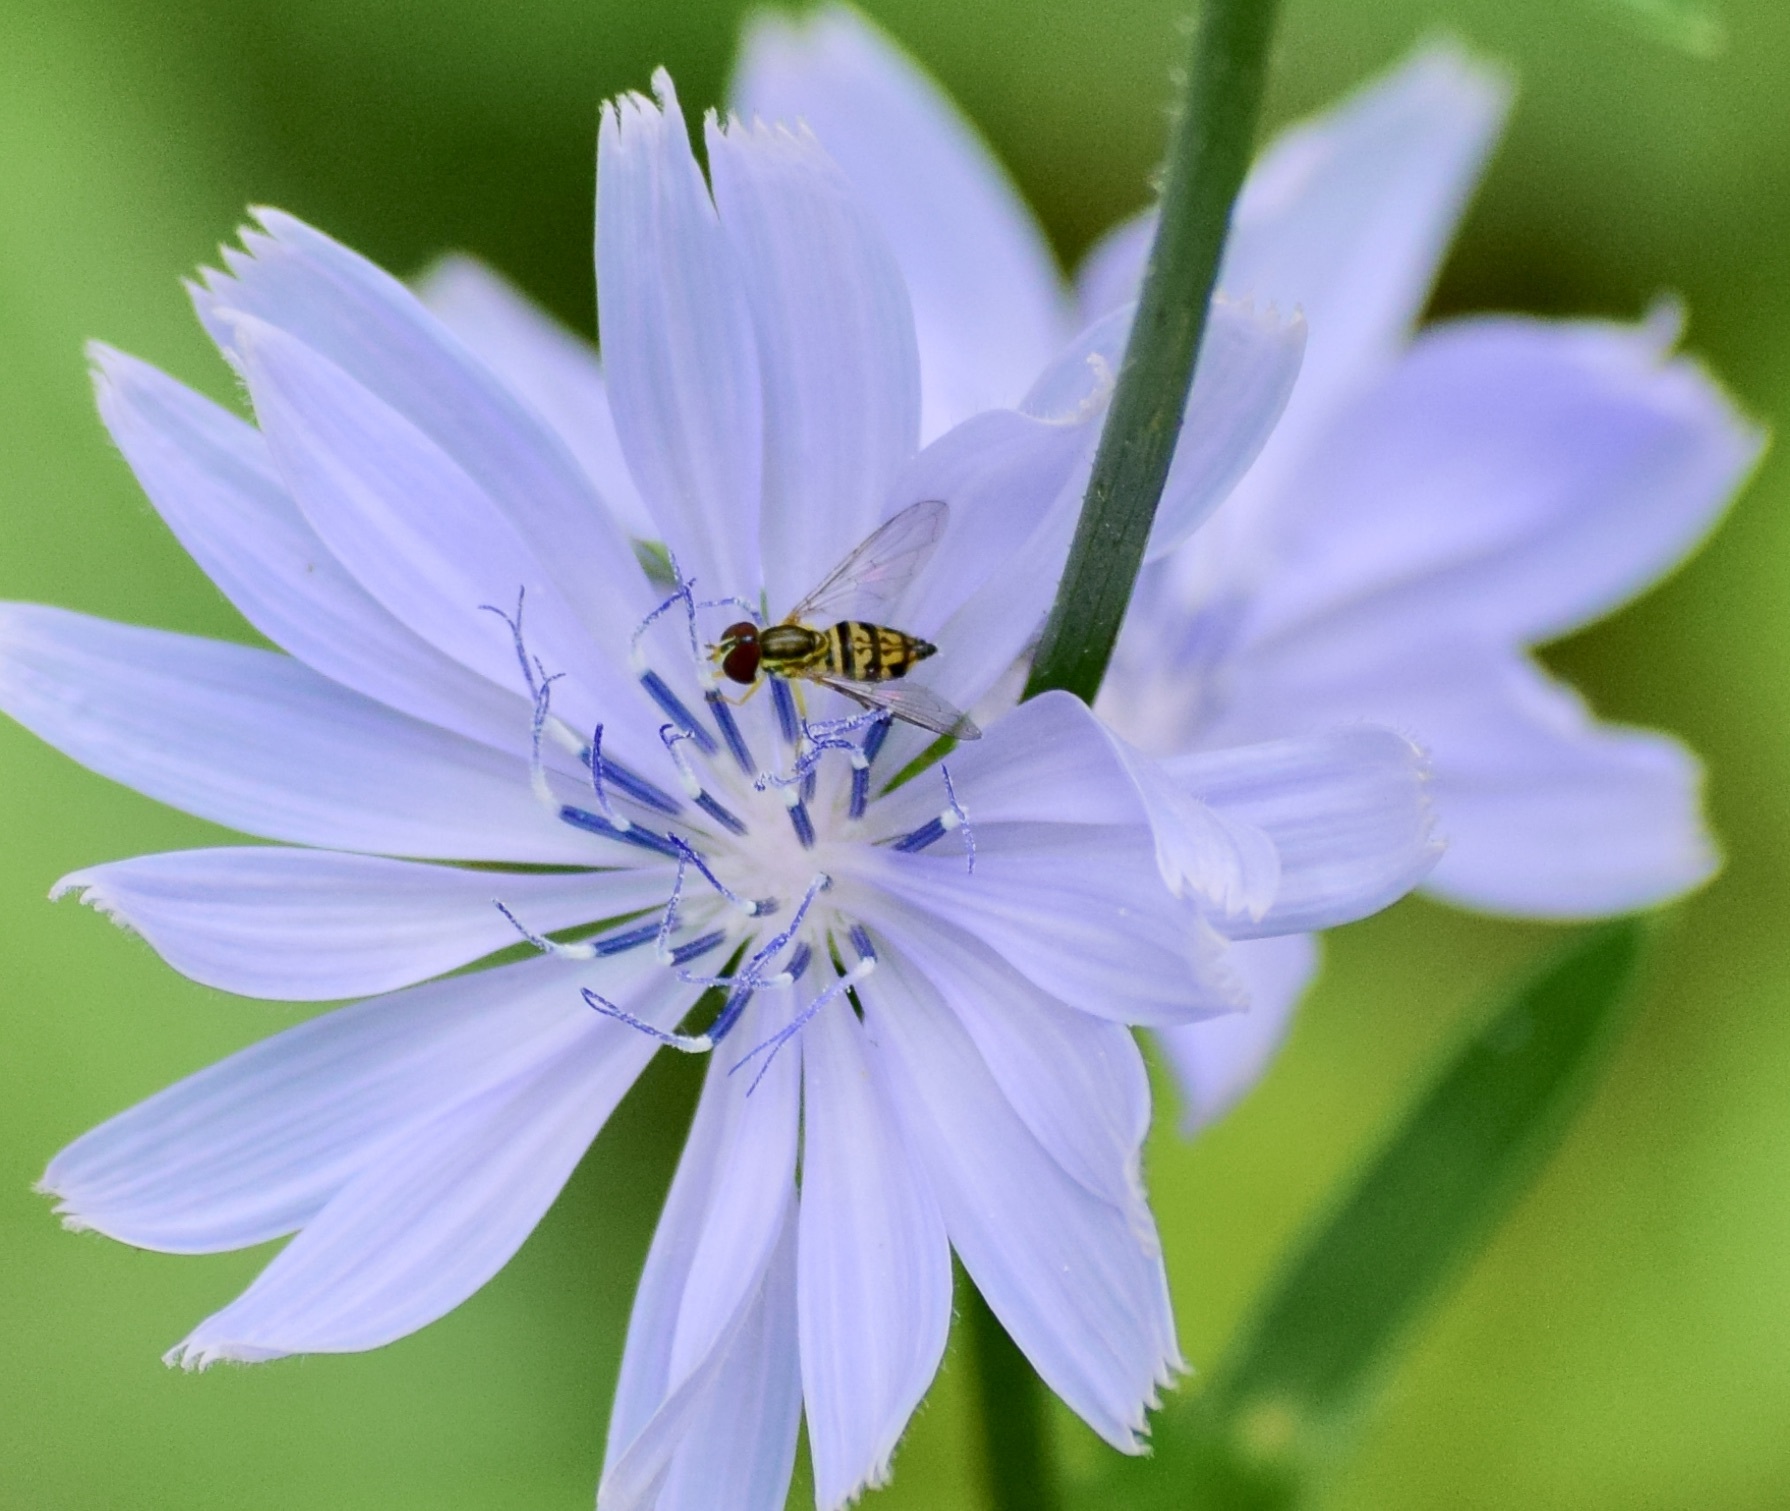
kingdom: Animalia
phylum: Arthropoda
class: Insecta
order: Diptera
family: Syrphidae
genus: Toxomerus
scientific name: Toxomerus geminatus
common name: Eastern calligrapher
